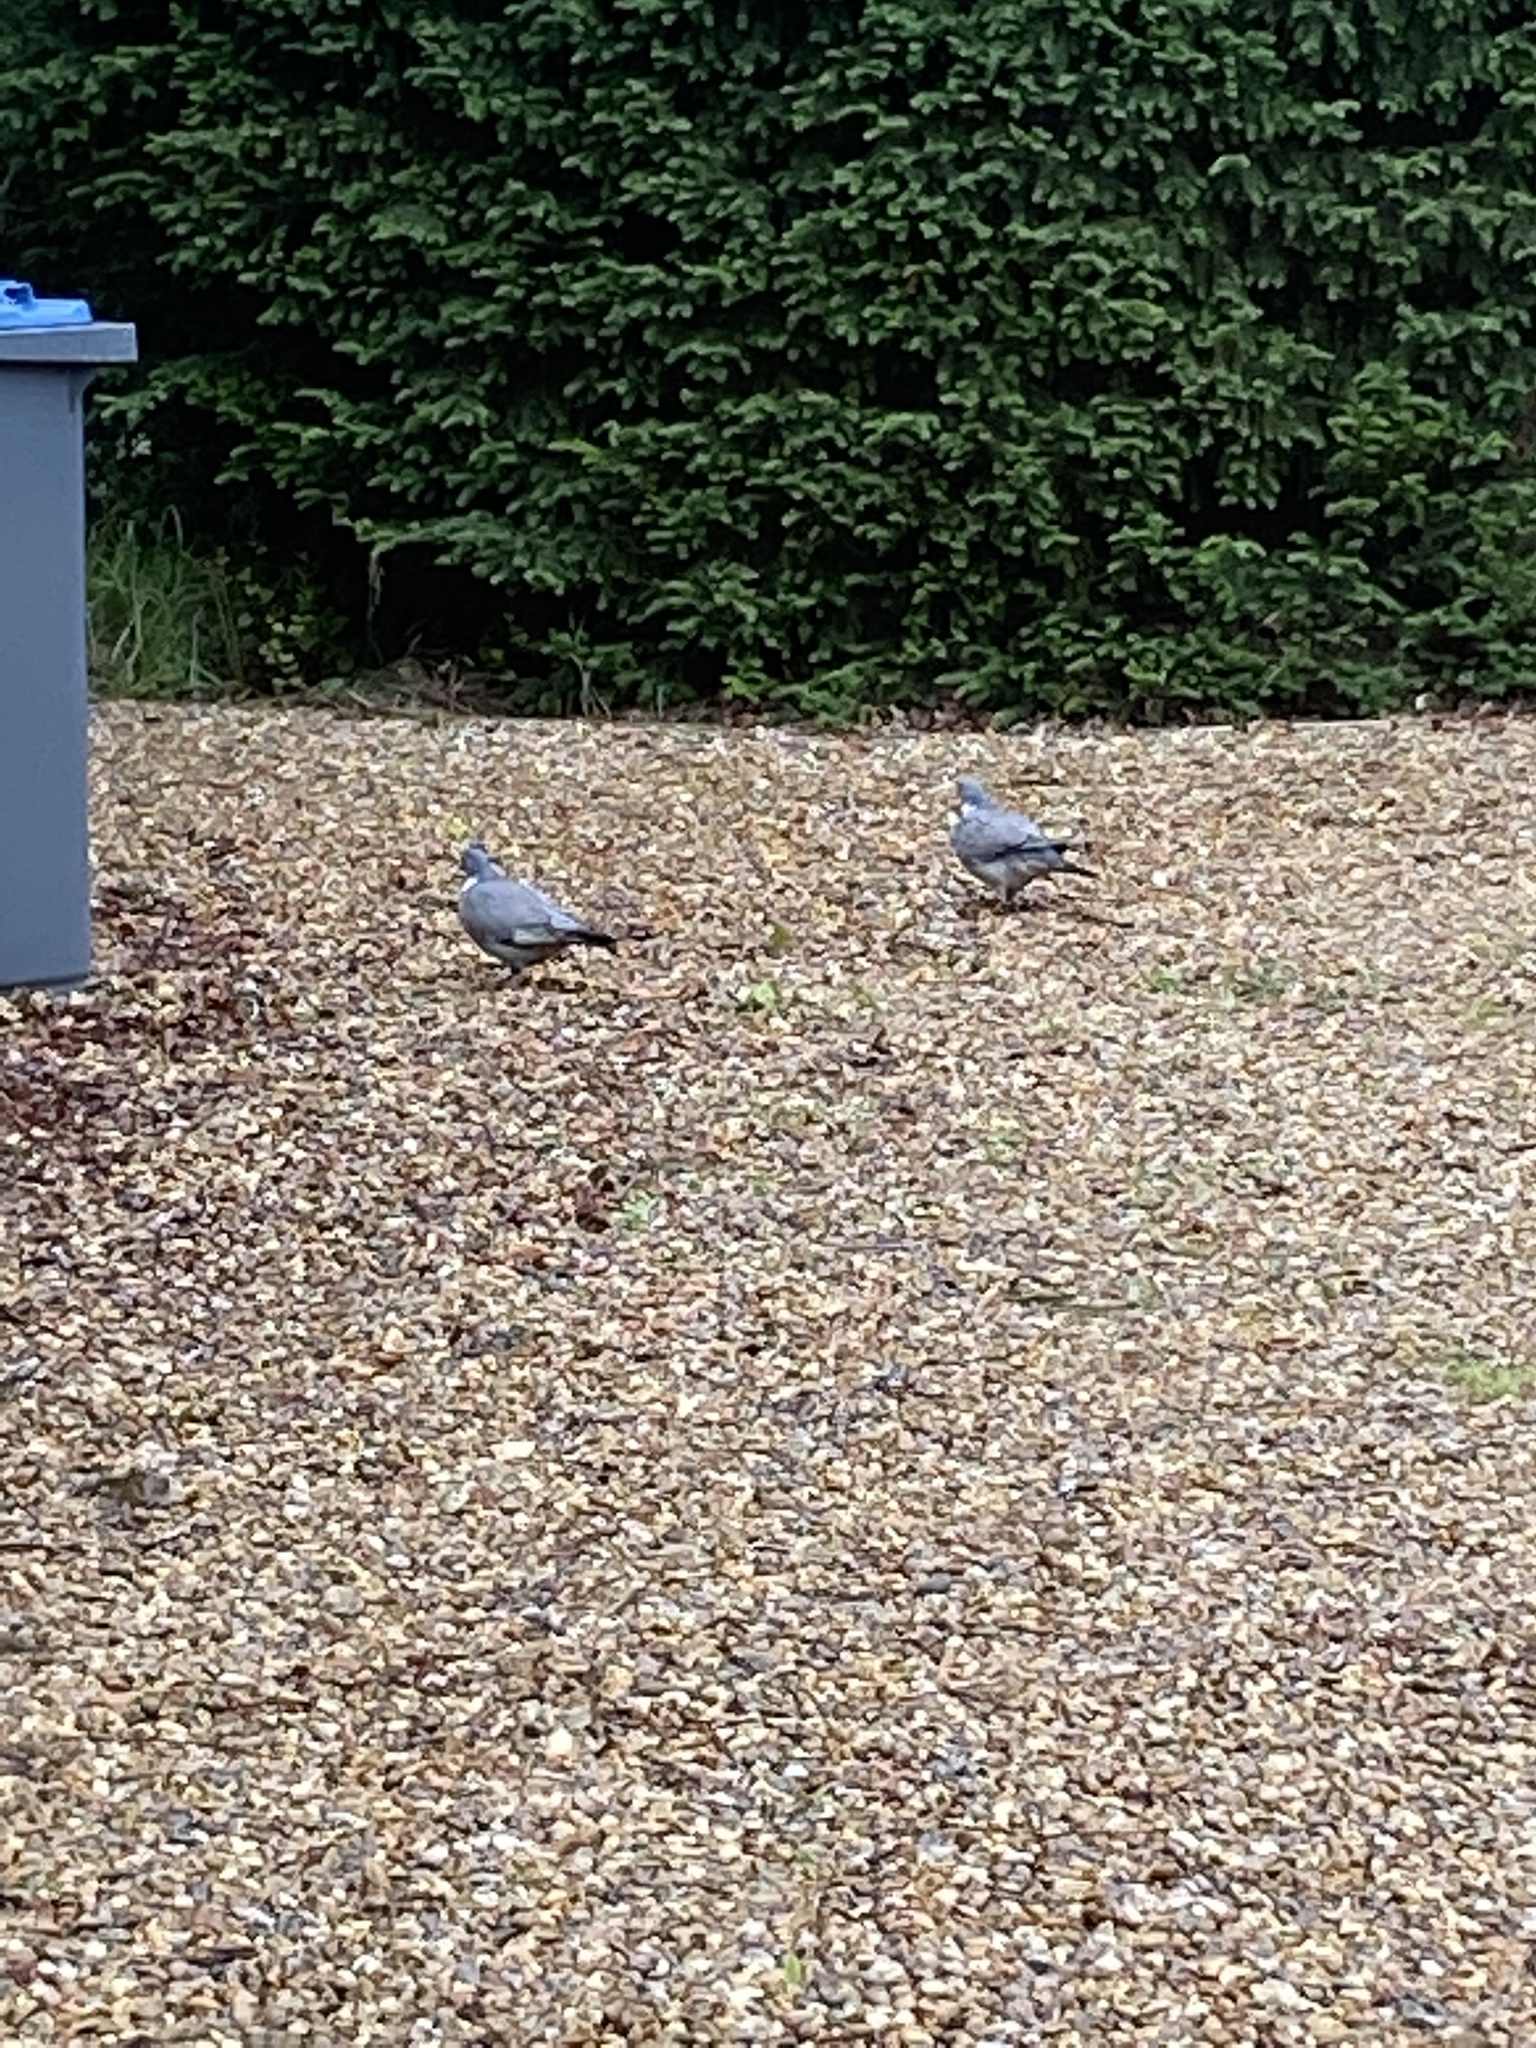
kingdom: Animalia
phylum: Chordata
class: Aves
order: Columbiformes
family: Columbidae
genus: Columba
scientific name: Columba palumbus
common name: Common wood pigeon
